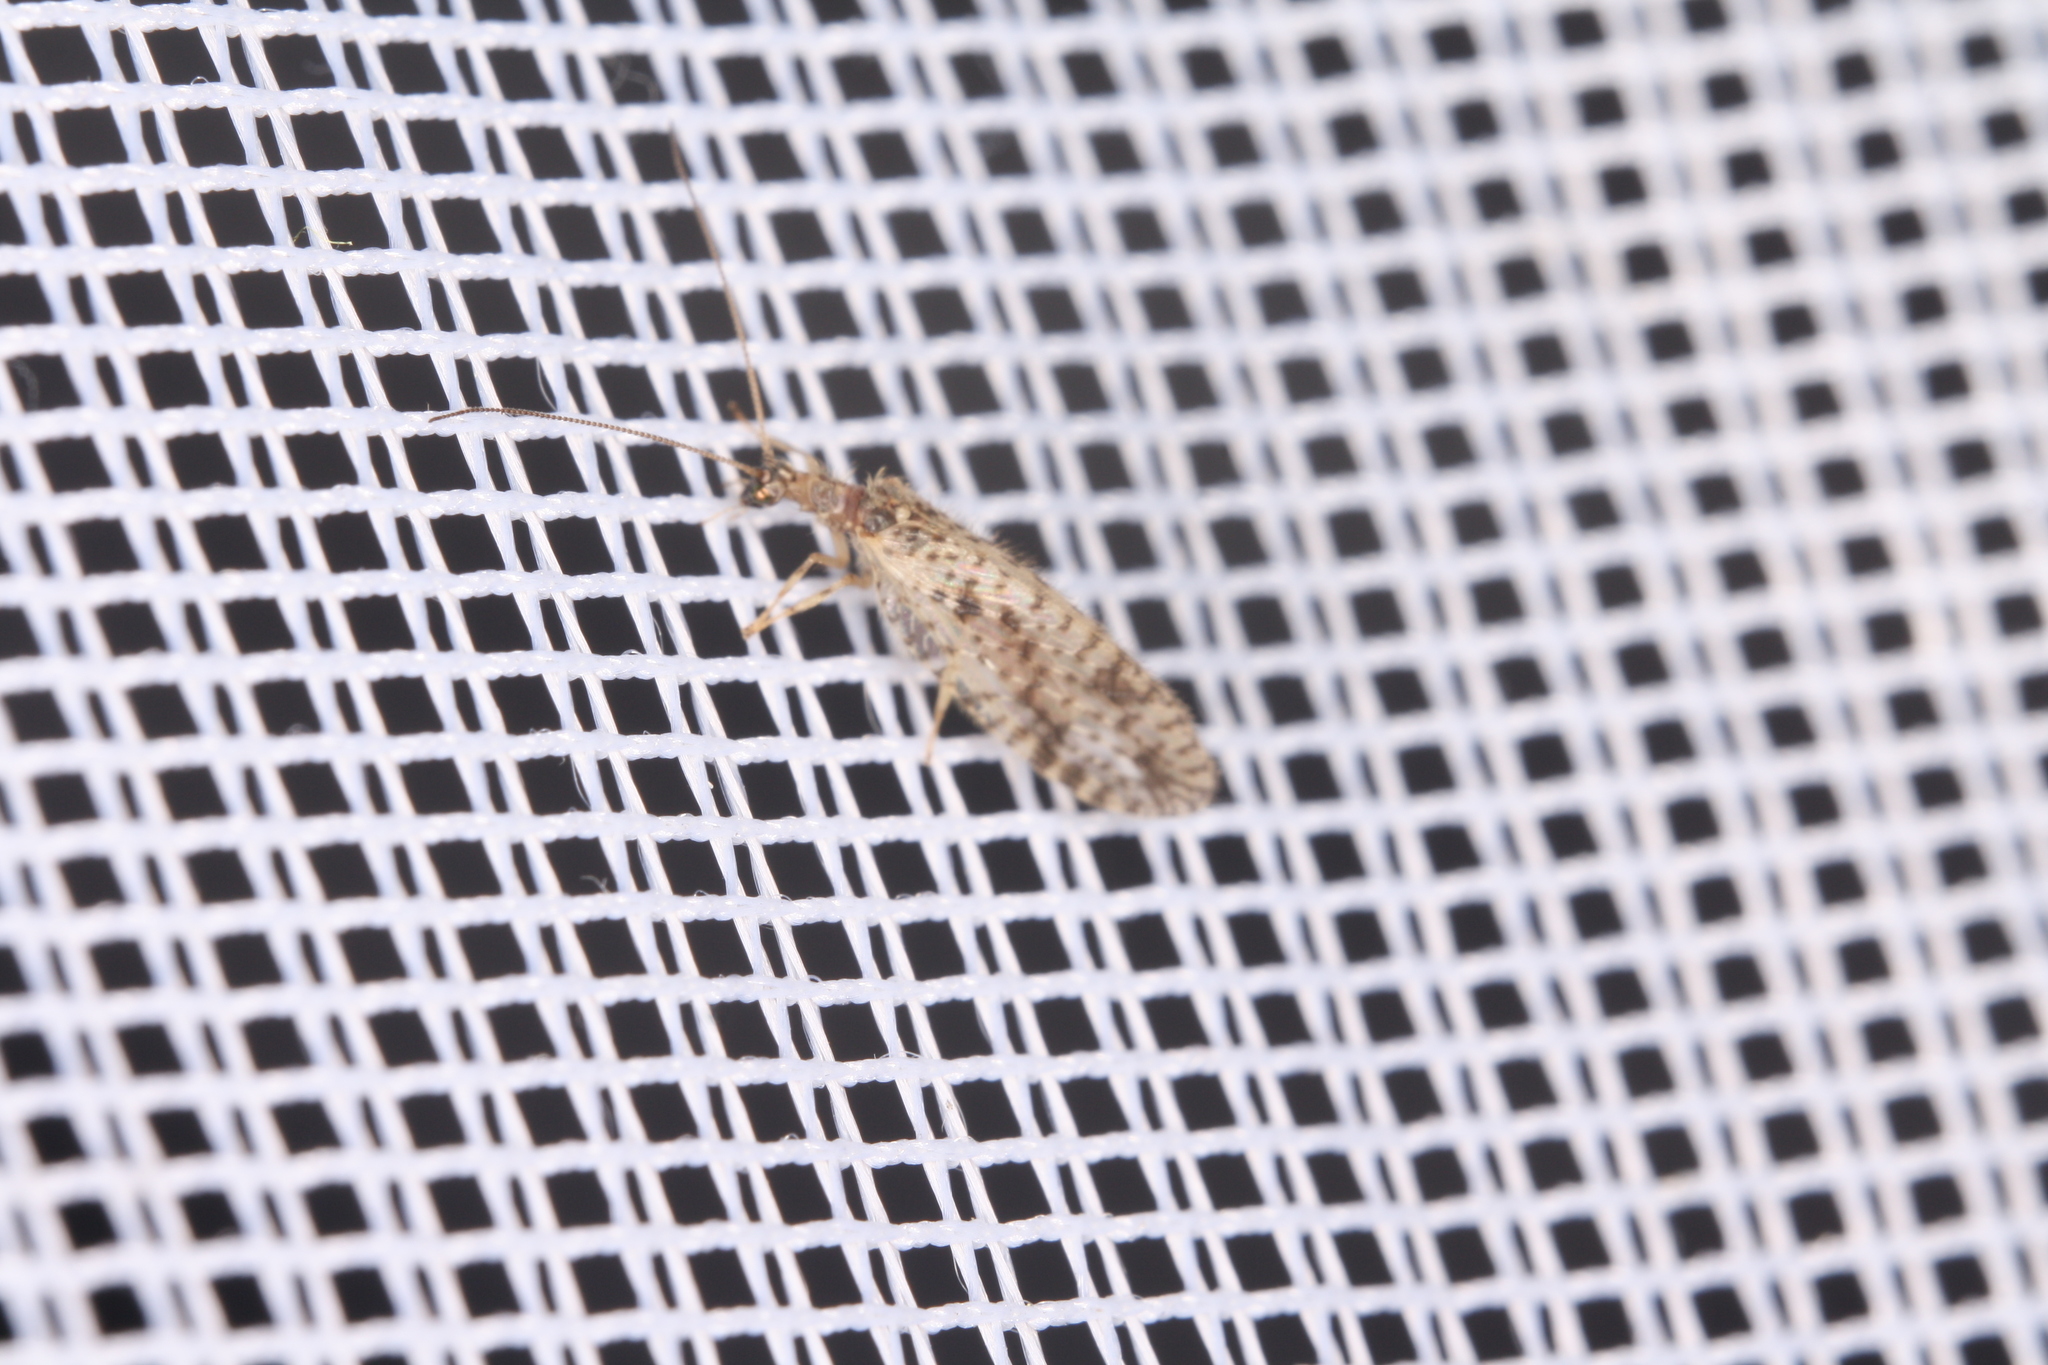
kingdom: Animalia
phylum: Arthropoda
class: Insecta
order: Neuroptera
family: Hemerobiidae
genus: Micromus
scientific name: Micromus variegatus
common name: Brown lacewing
